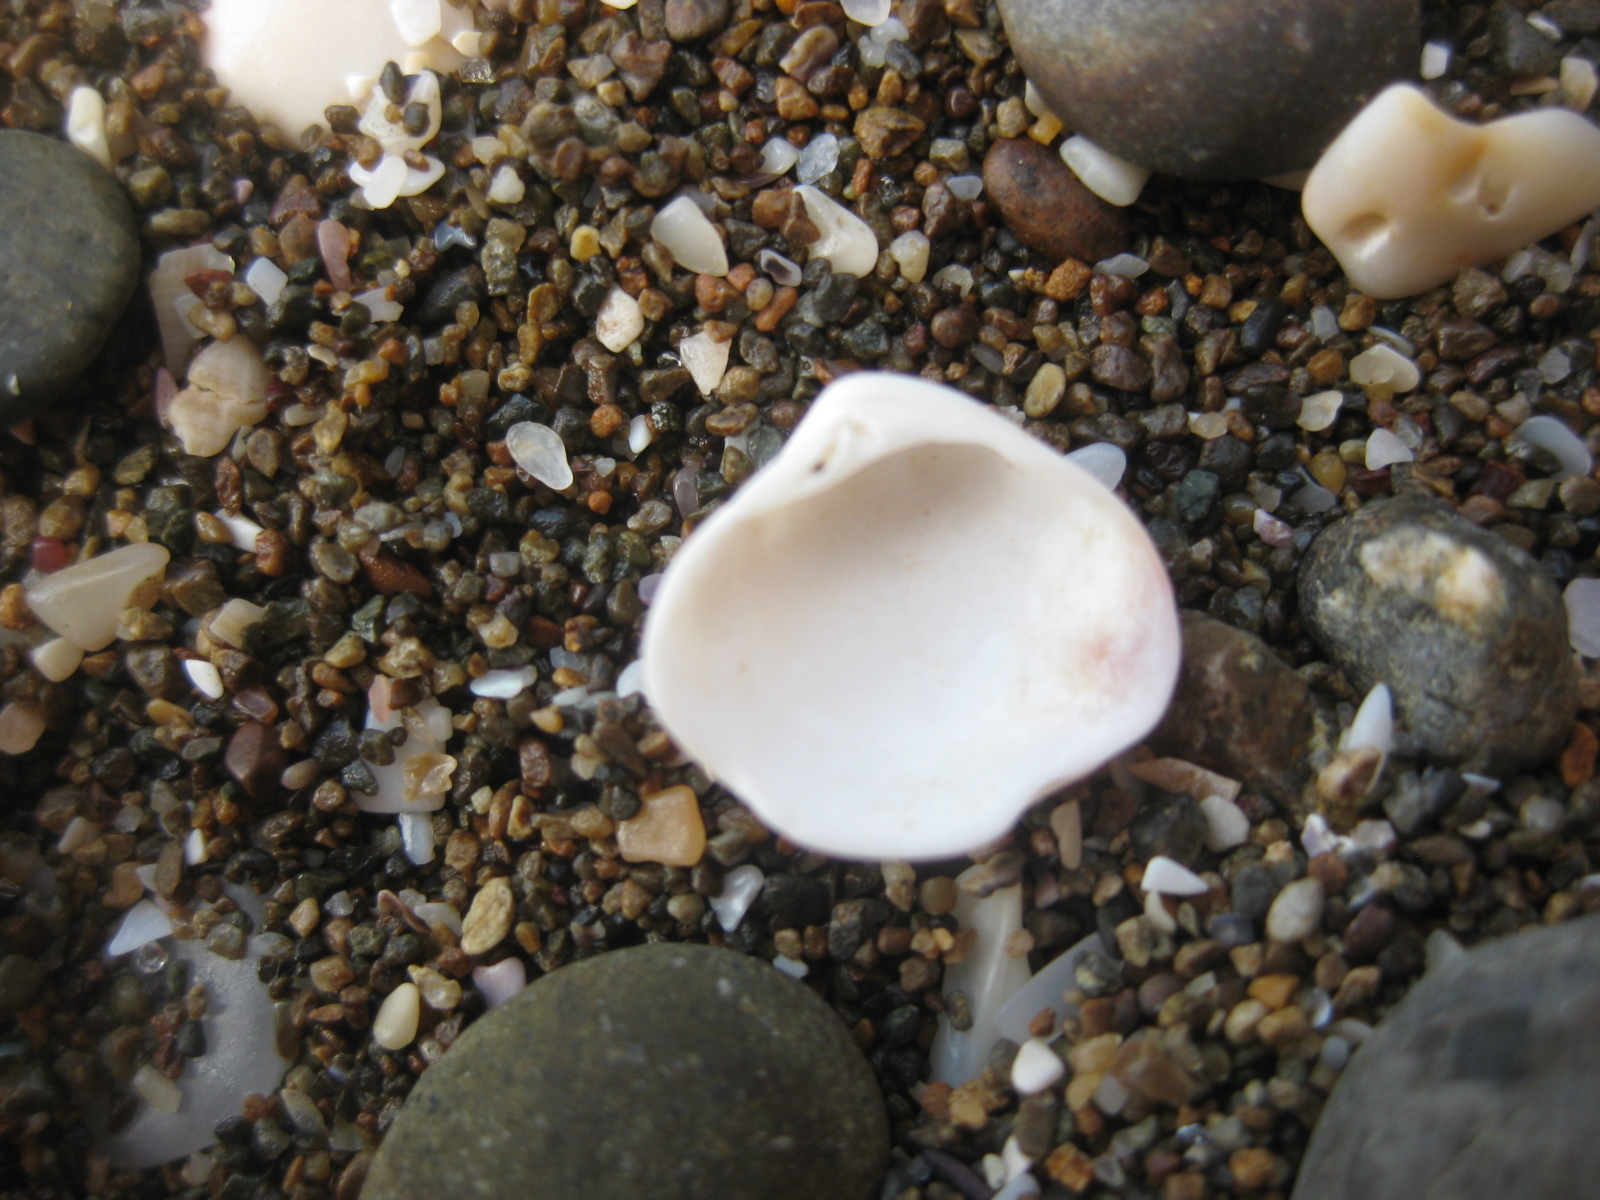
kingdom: Animalia
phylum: Mollusca
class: Bivalvia
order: Venerida
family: Veneridae
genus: Tawera
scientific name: Tawera spissa
